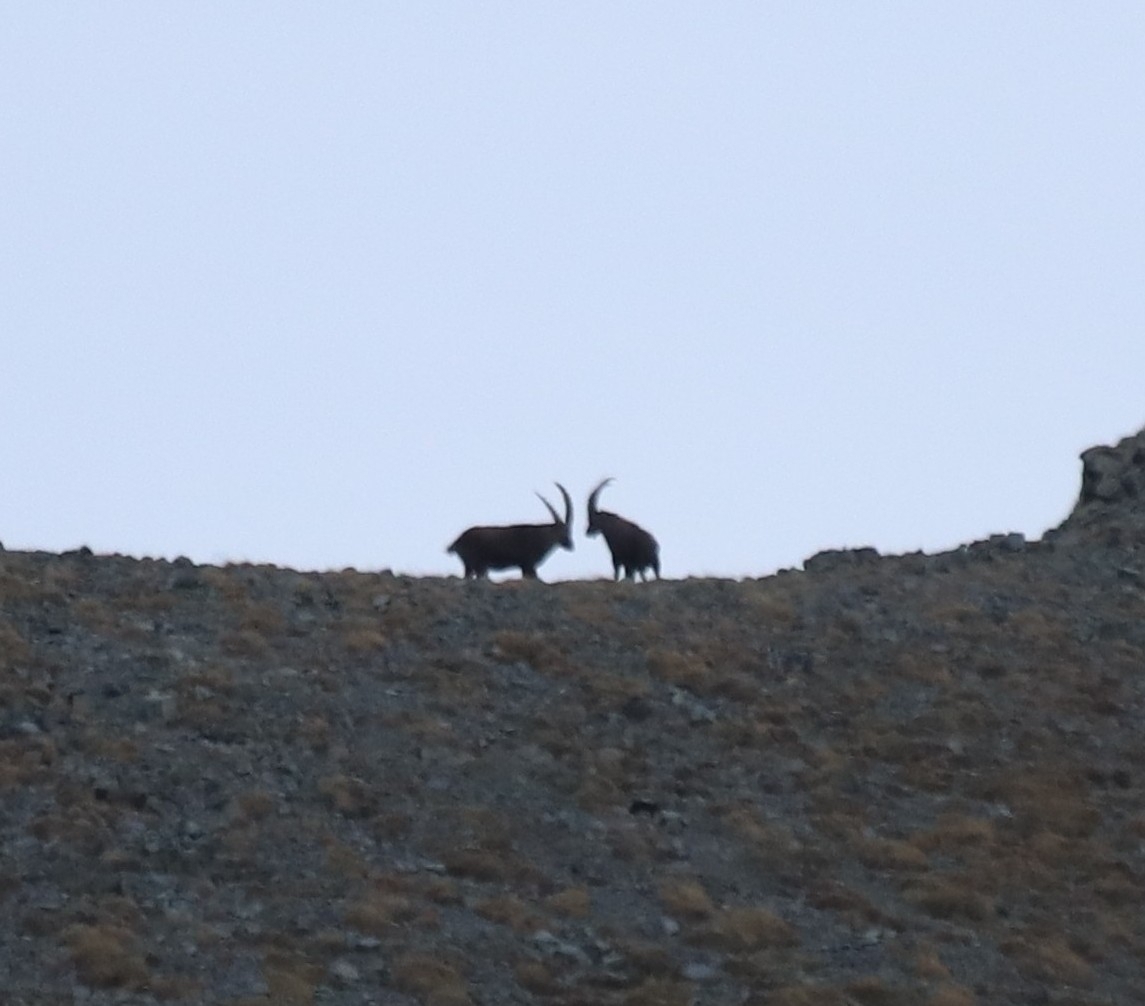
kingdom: Animalia
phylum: Chordata
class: Mammalia
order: Artiodactyla
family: Bovidae
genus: Capra
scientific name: Capra ibex
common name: Alpine ibex
